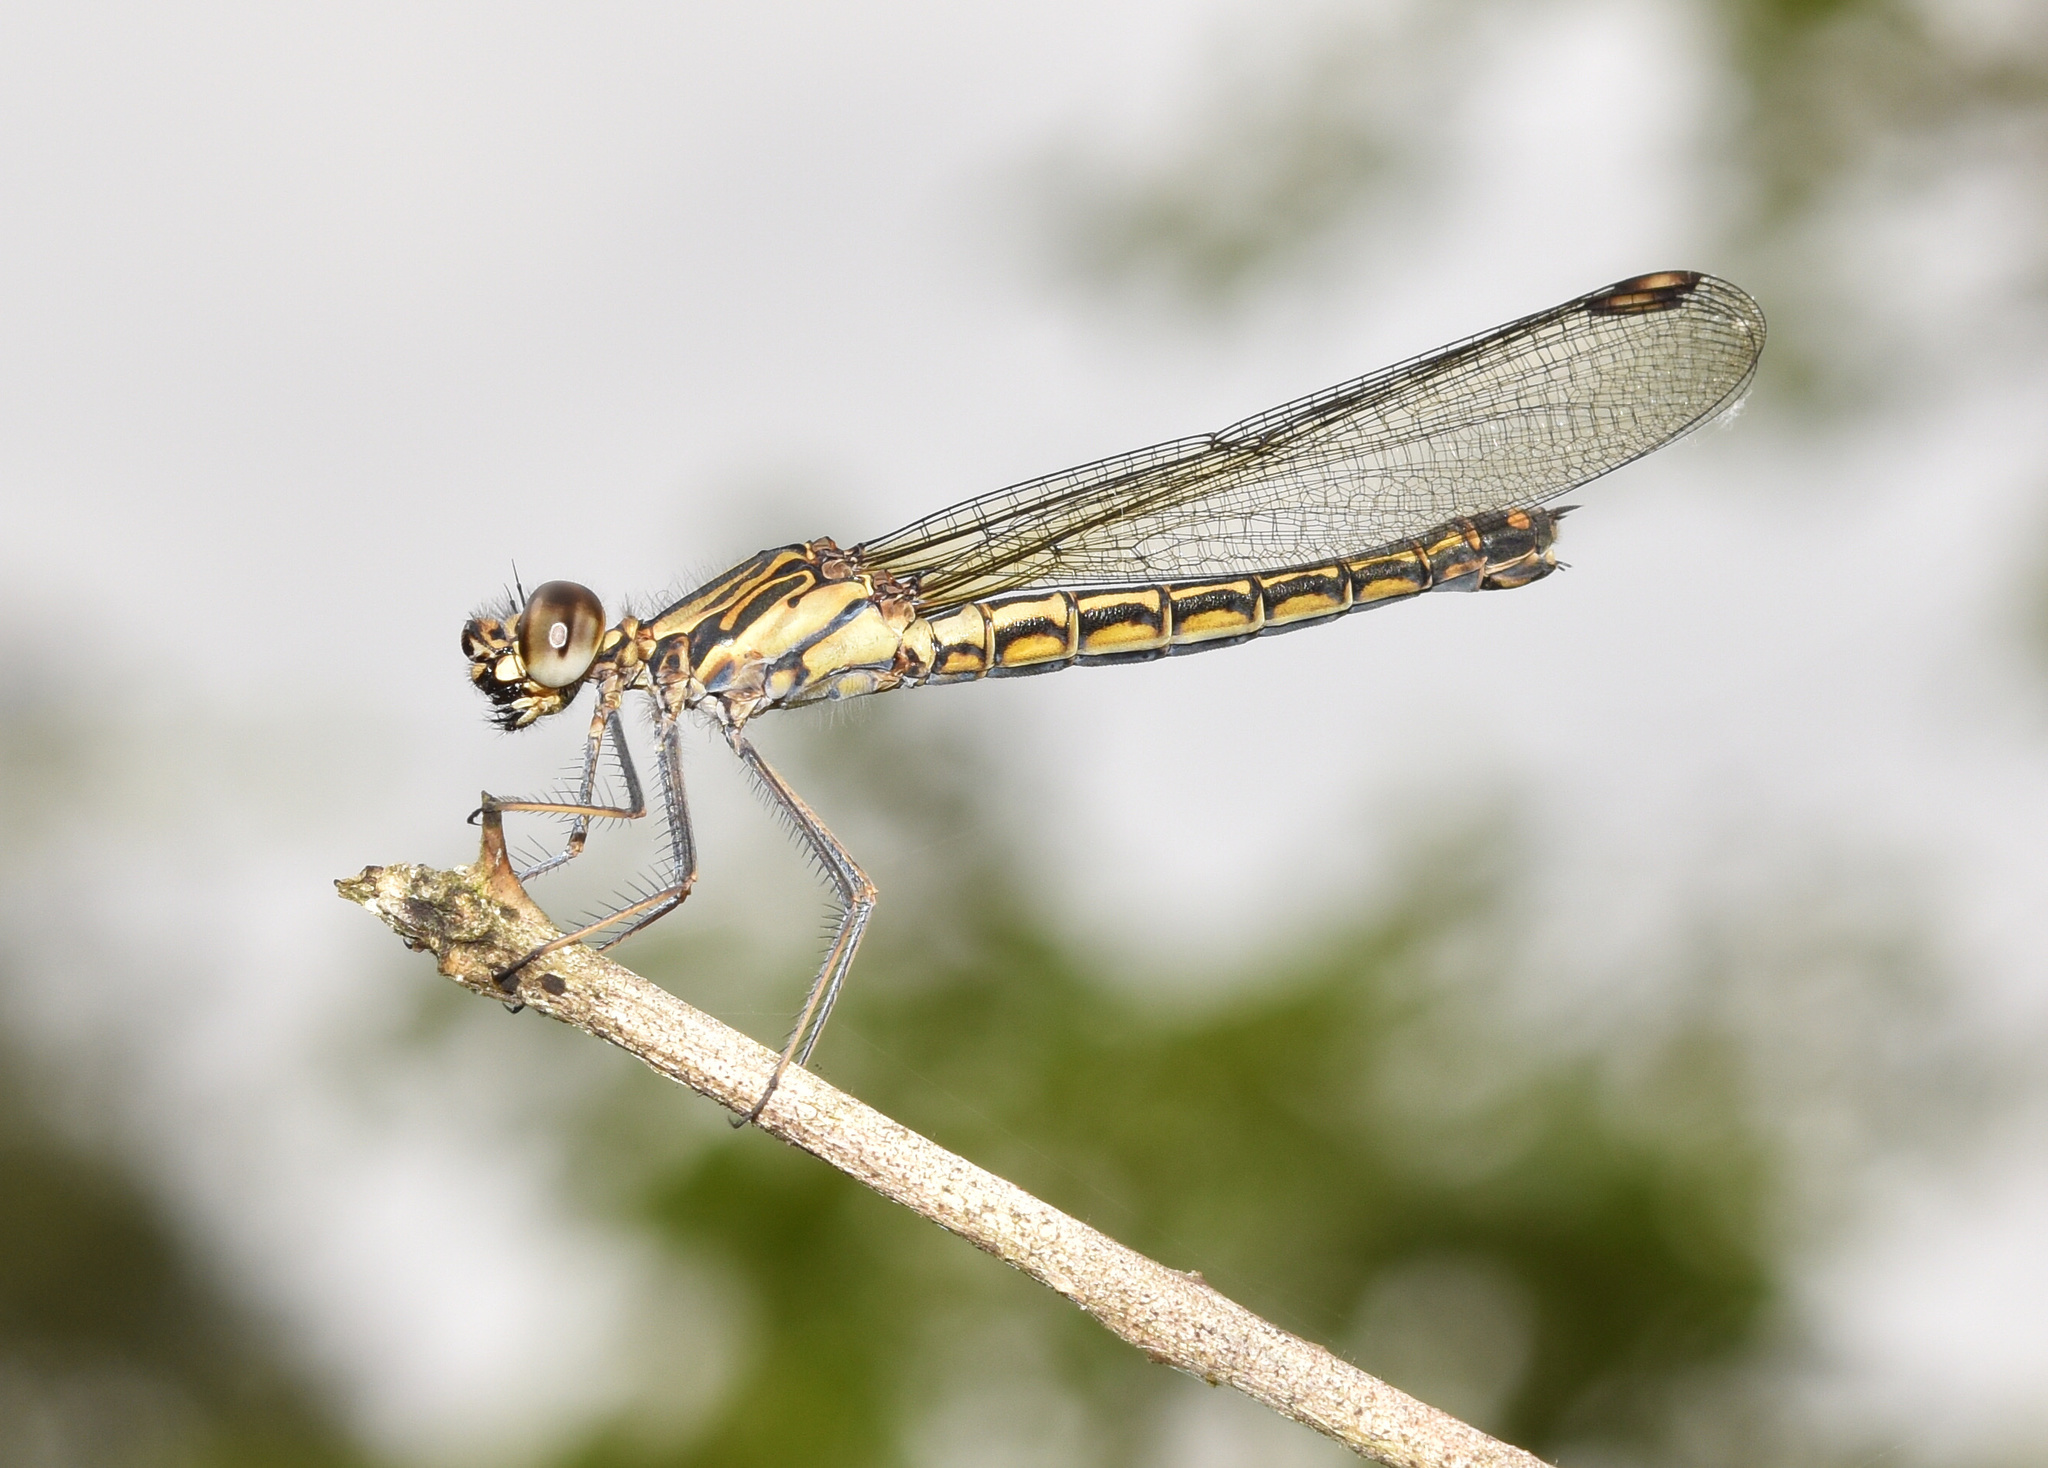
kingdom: Animalia
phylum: Arthropoda
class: Insecta
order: Odonata
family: Chlorocyphidae
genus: Platycypha
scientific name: Platycypha caligata
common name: Dancing jewel
